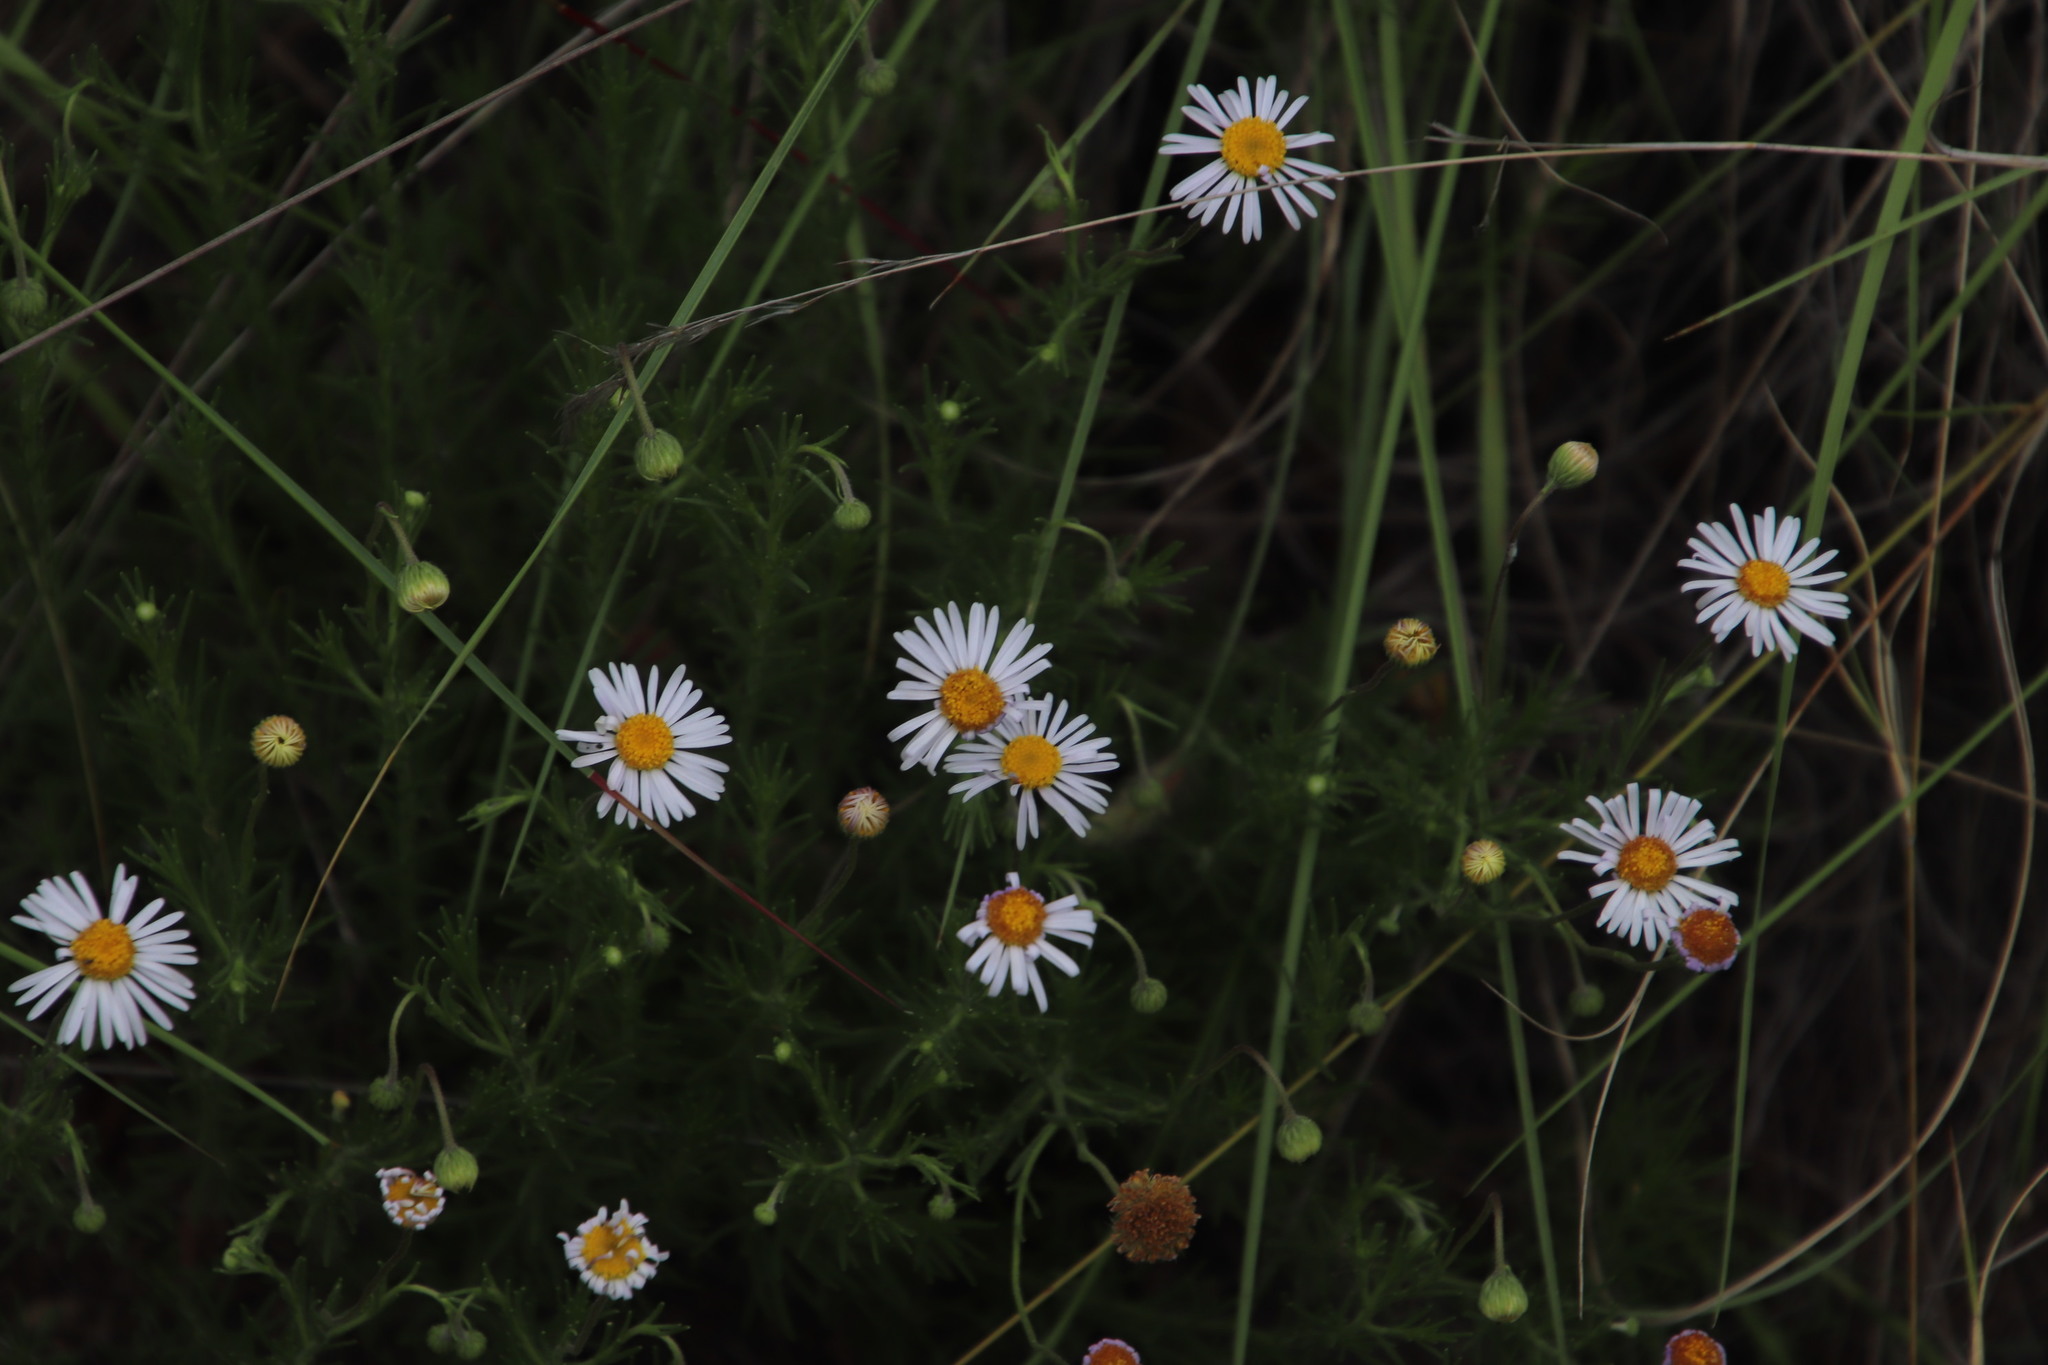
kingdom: Plantae
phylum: Tracheophyta
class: Magnoliopsida
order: Asterales
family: Asteraceae
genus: Felicia
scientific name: Felicia muricata
